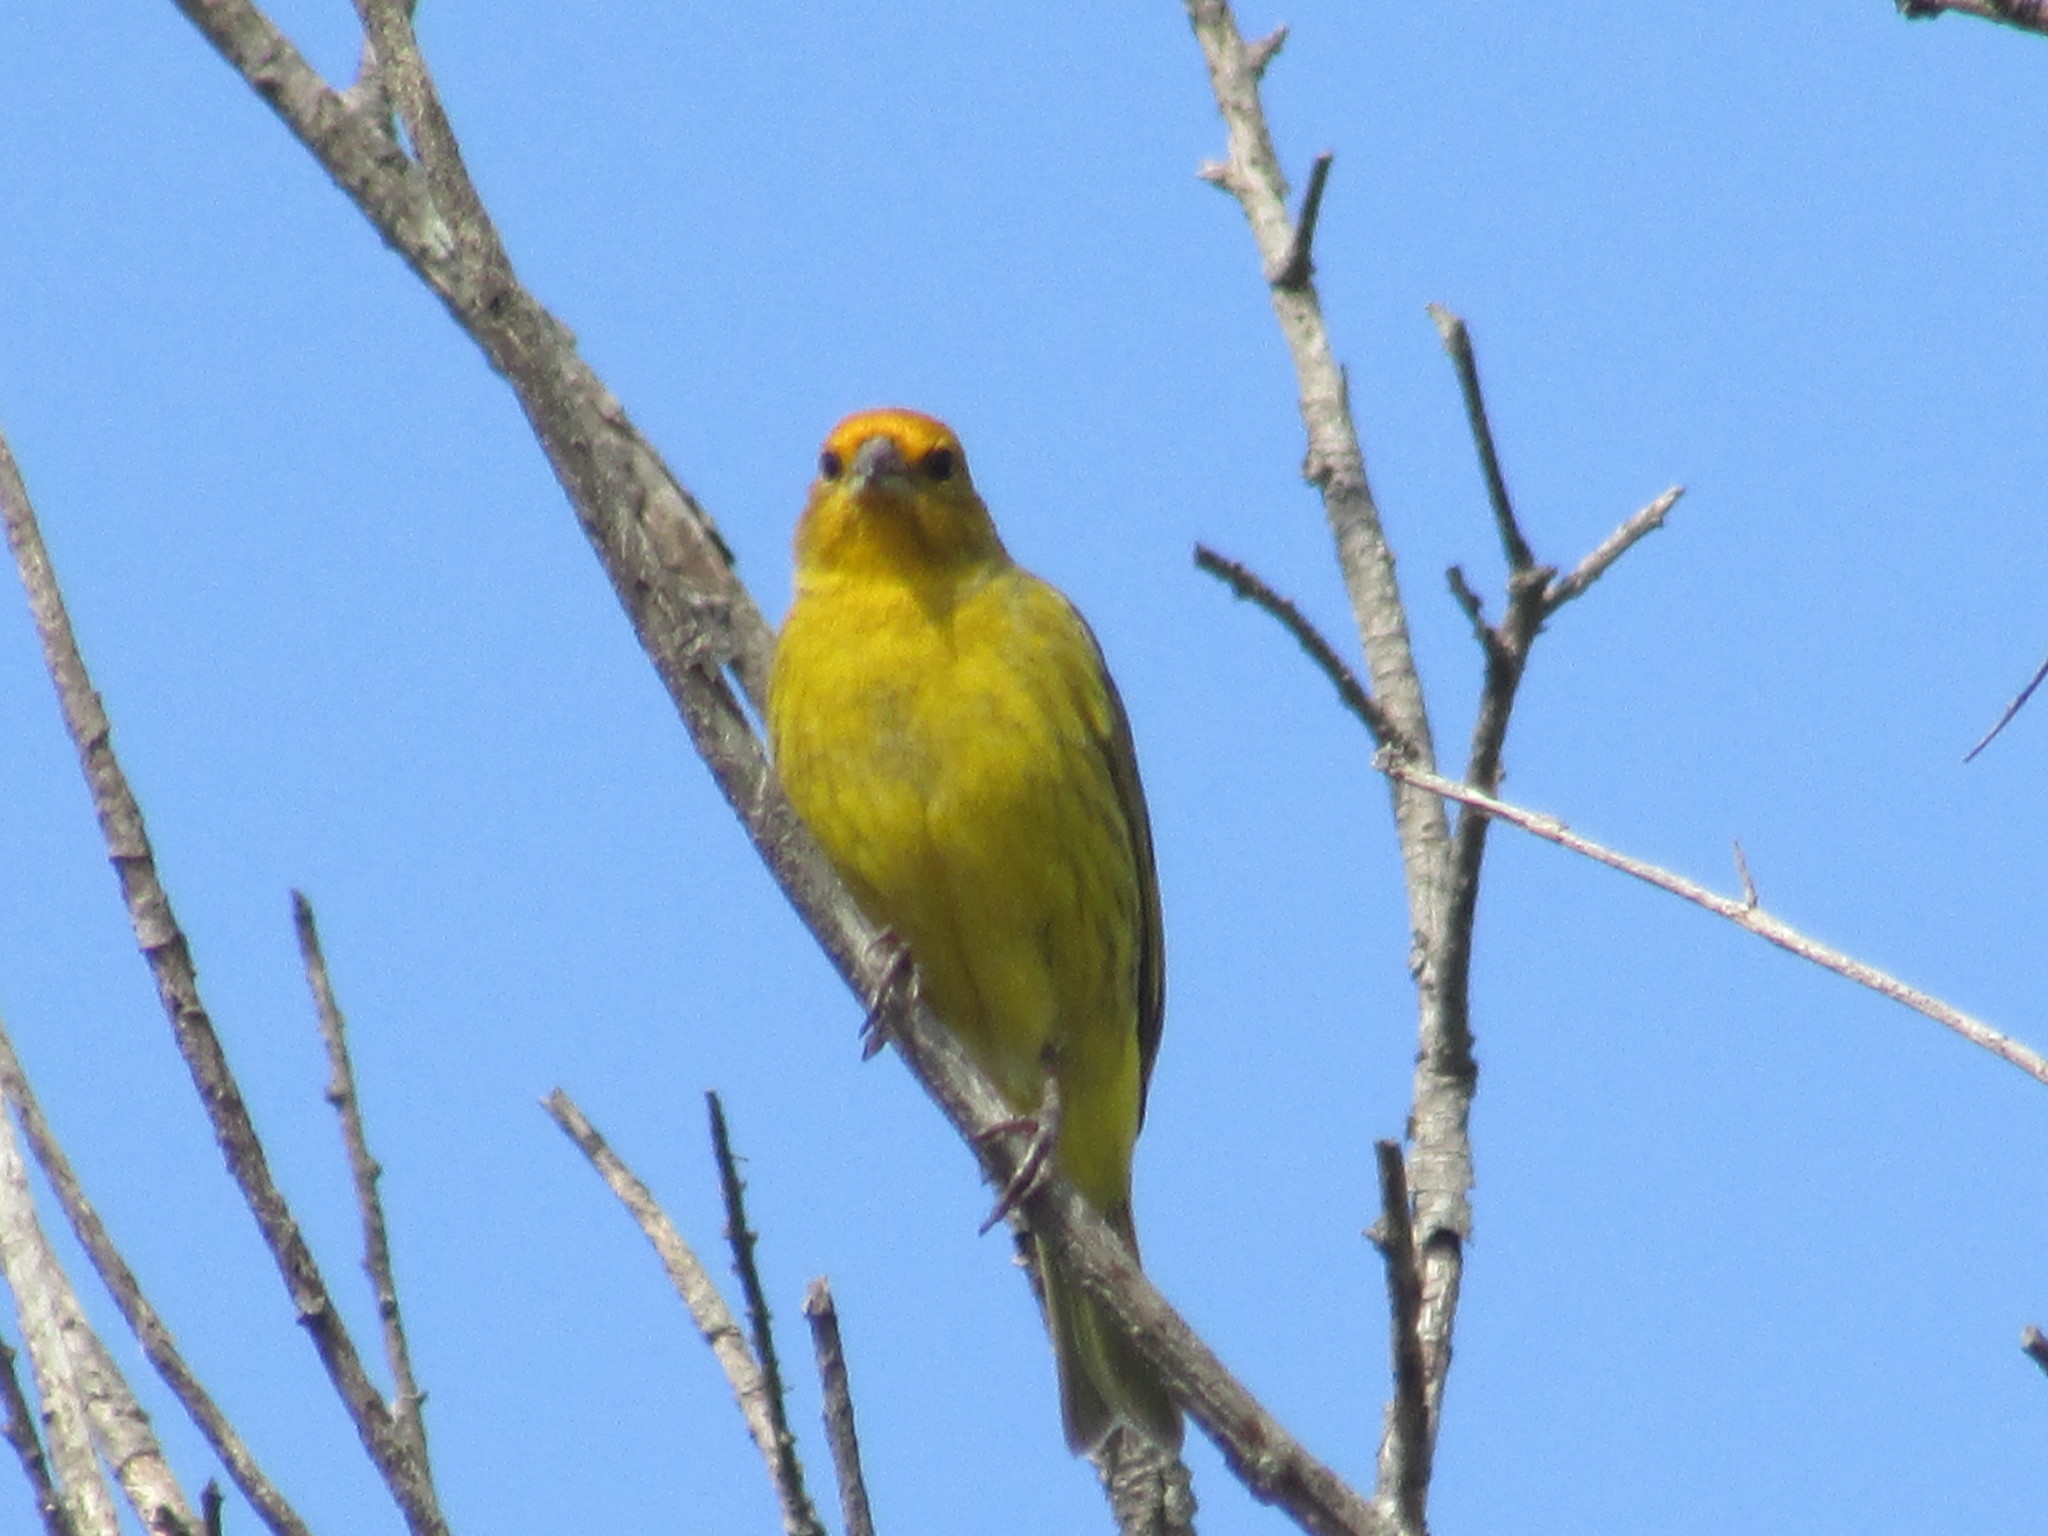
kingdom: Animalia
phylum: Chordata
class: Aves
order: Passeriformes
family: Thraupidae
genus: Sicalis
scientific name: Sicalis flaveola
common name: Saffron finch
